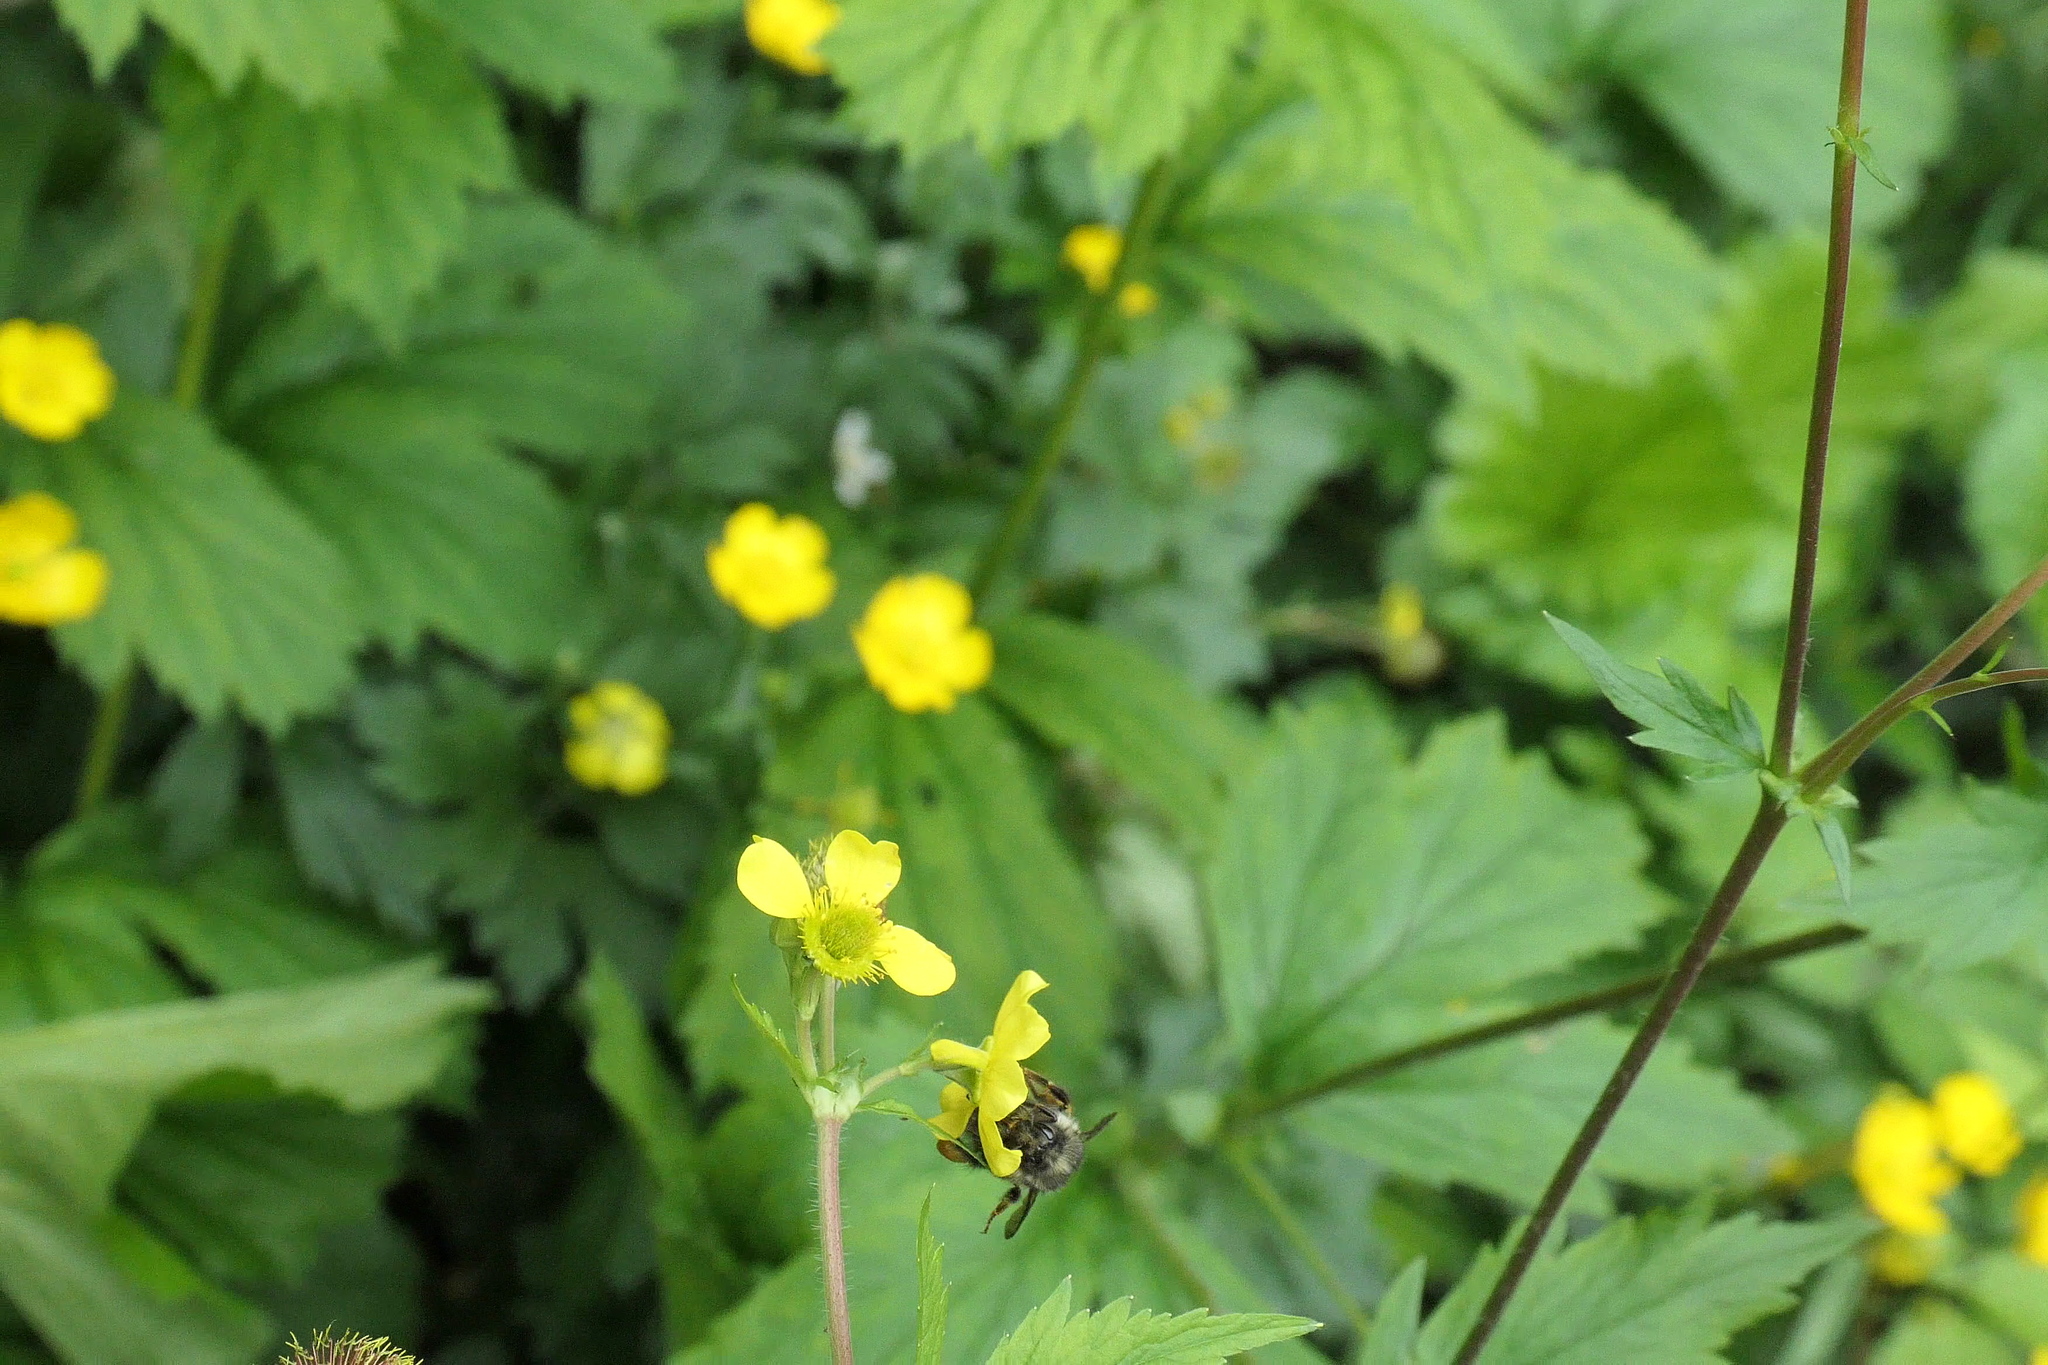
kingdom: Animalia
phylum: Arthropoda
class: Insecta
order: Hymenoptera
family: Apidae
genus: Bombus
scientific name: Bombus melanopygus
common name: Black tail bumble bee
